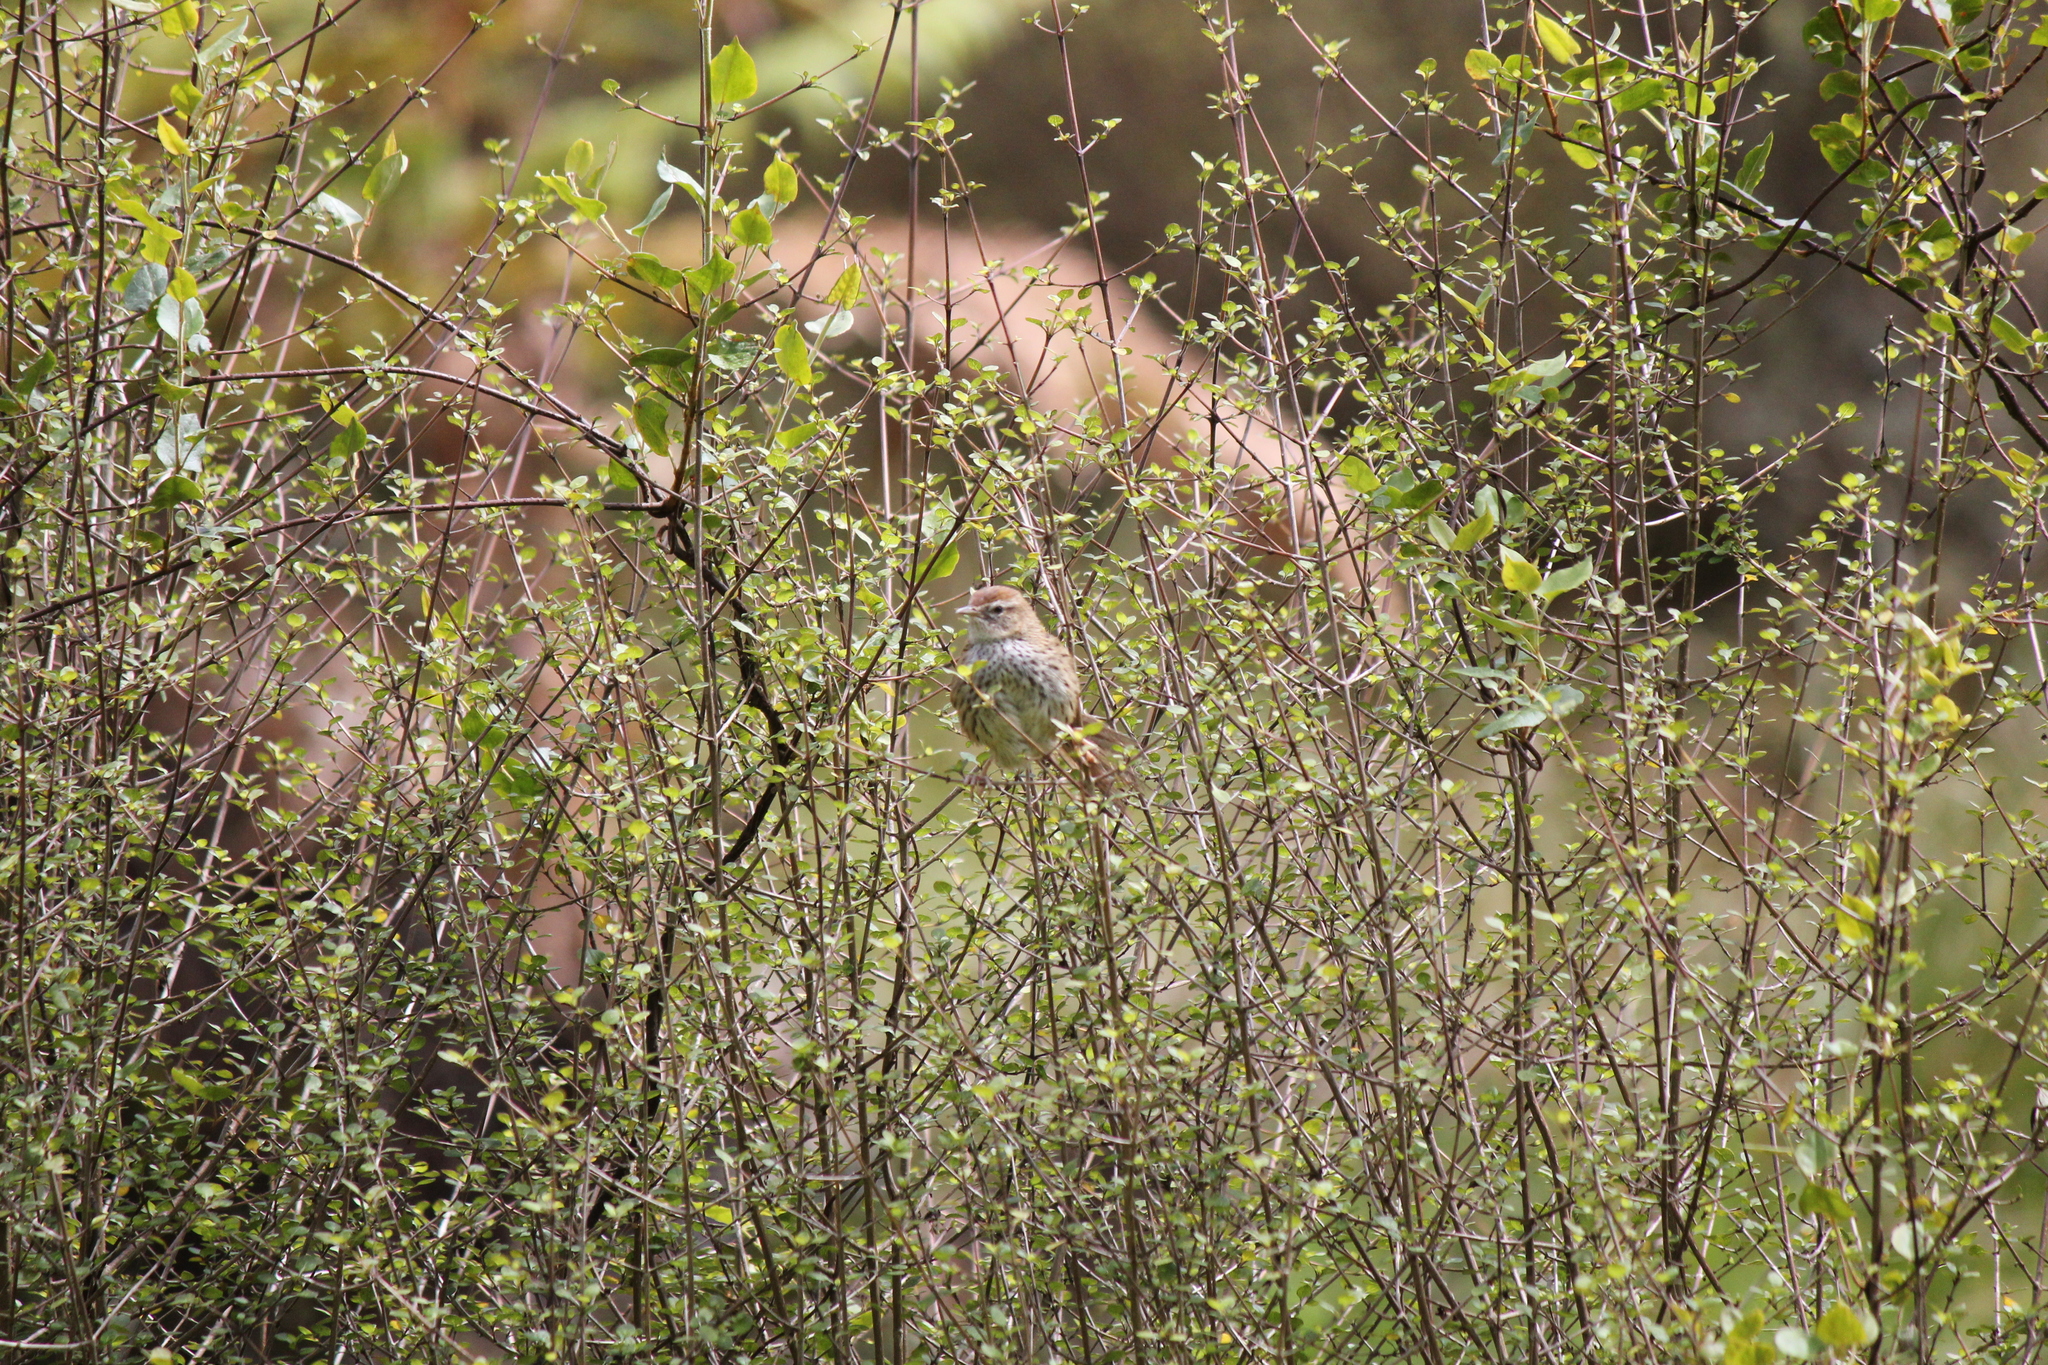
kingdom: Animalia
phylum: Chordata
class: Aves
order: Passeriformes
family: Locustellidae
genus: Poodytes
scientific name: Poodytes punctatus
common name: New zealand fernbird
